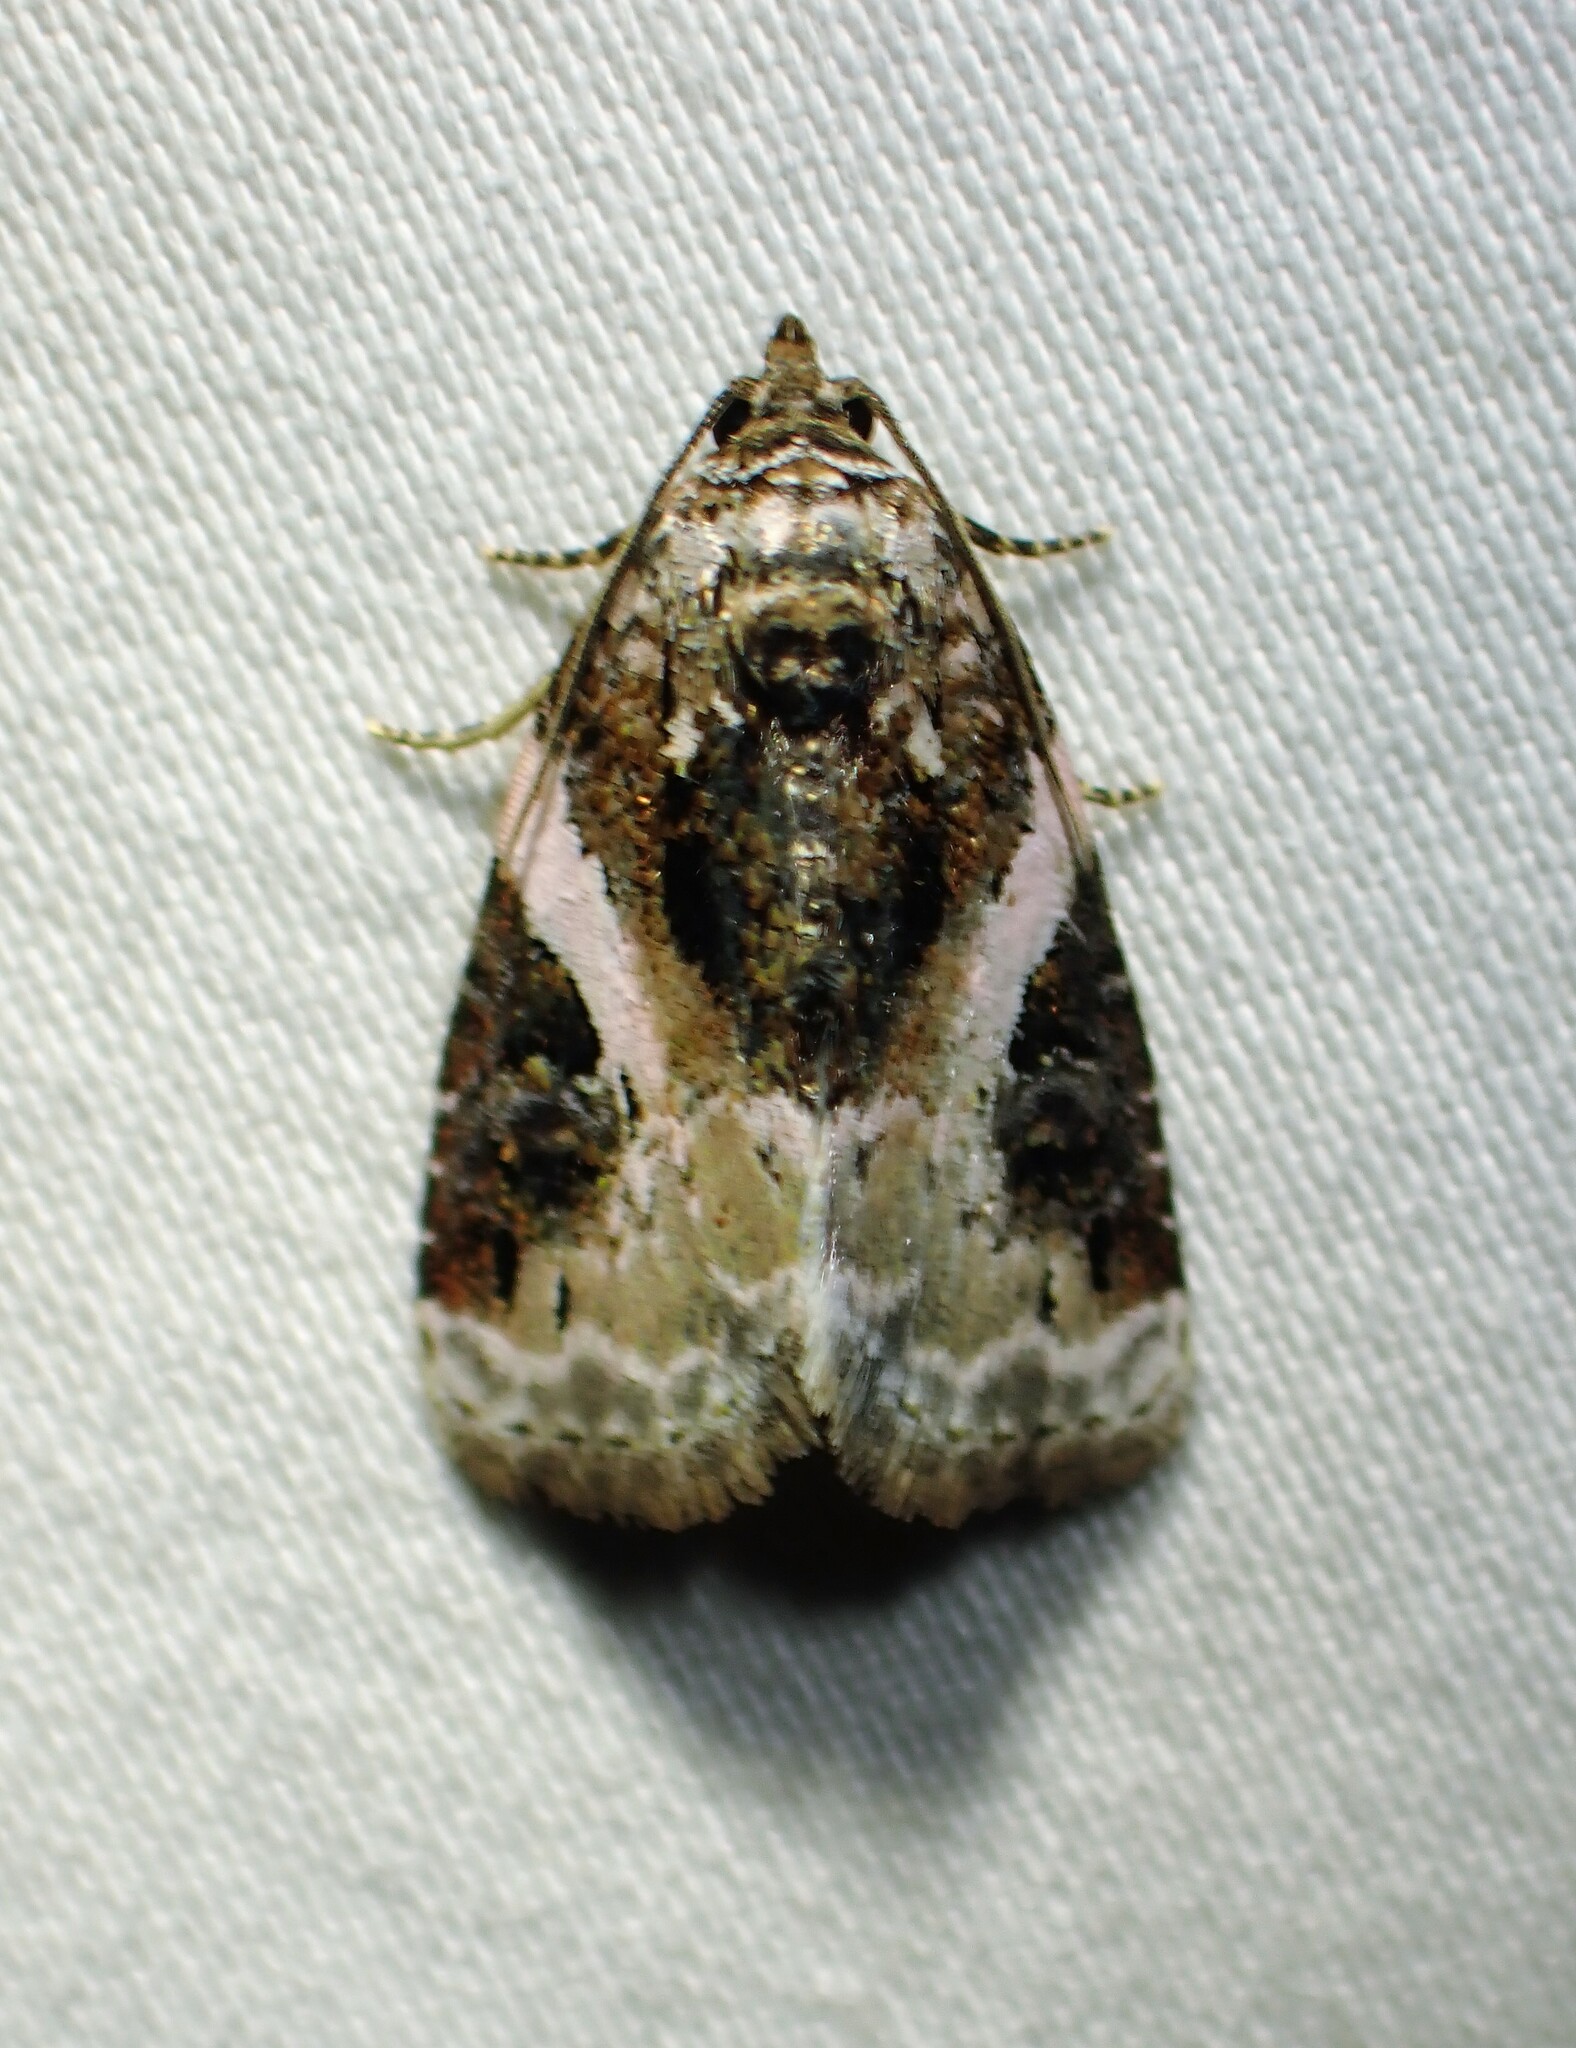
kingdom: Animalia
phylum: Arthropoda
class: Insecta
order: Lepidoptera
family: Noctuidae
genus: Pseudeustrotia
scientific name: Pseudeustrotia carneola
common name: Pink-barred lithacodia moth
